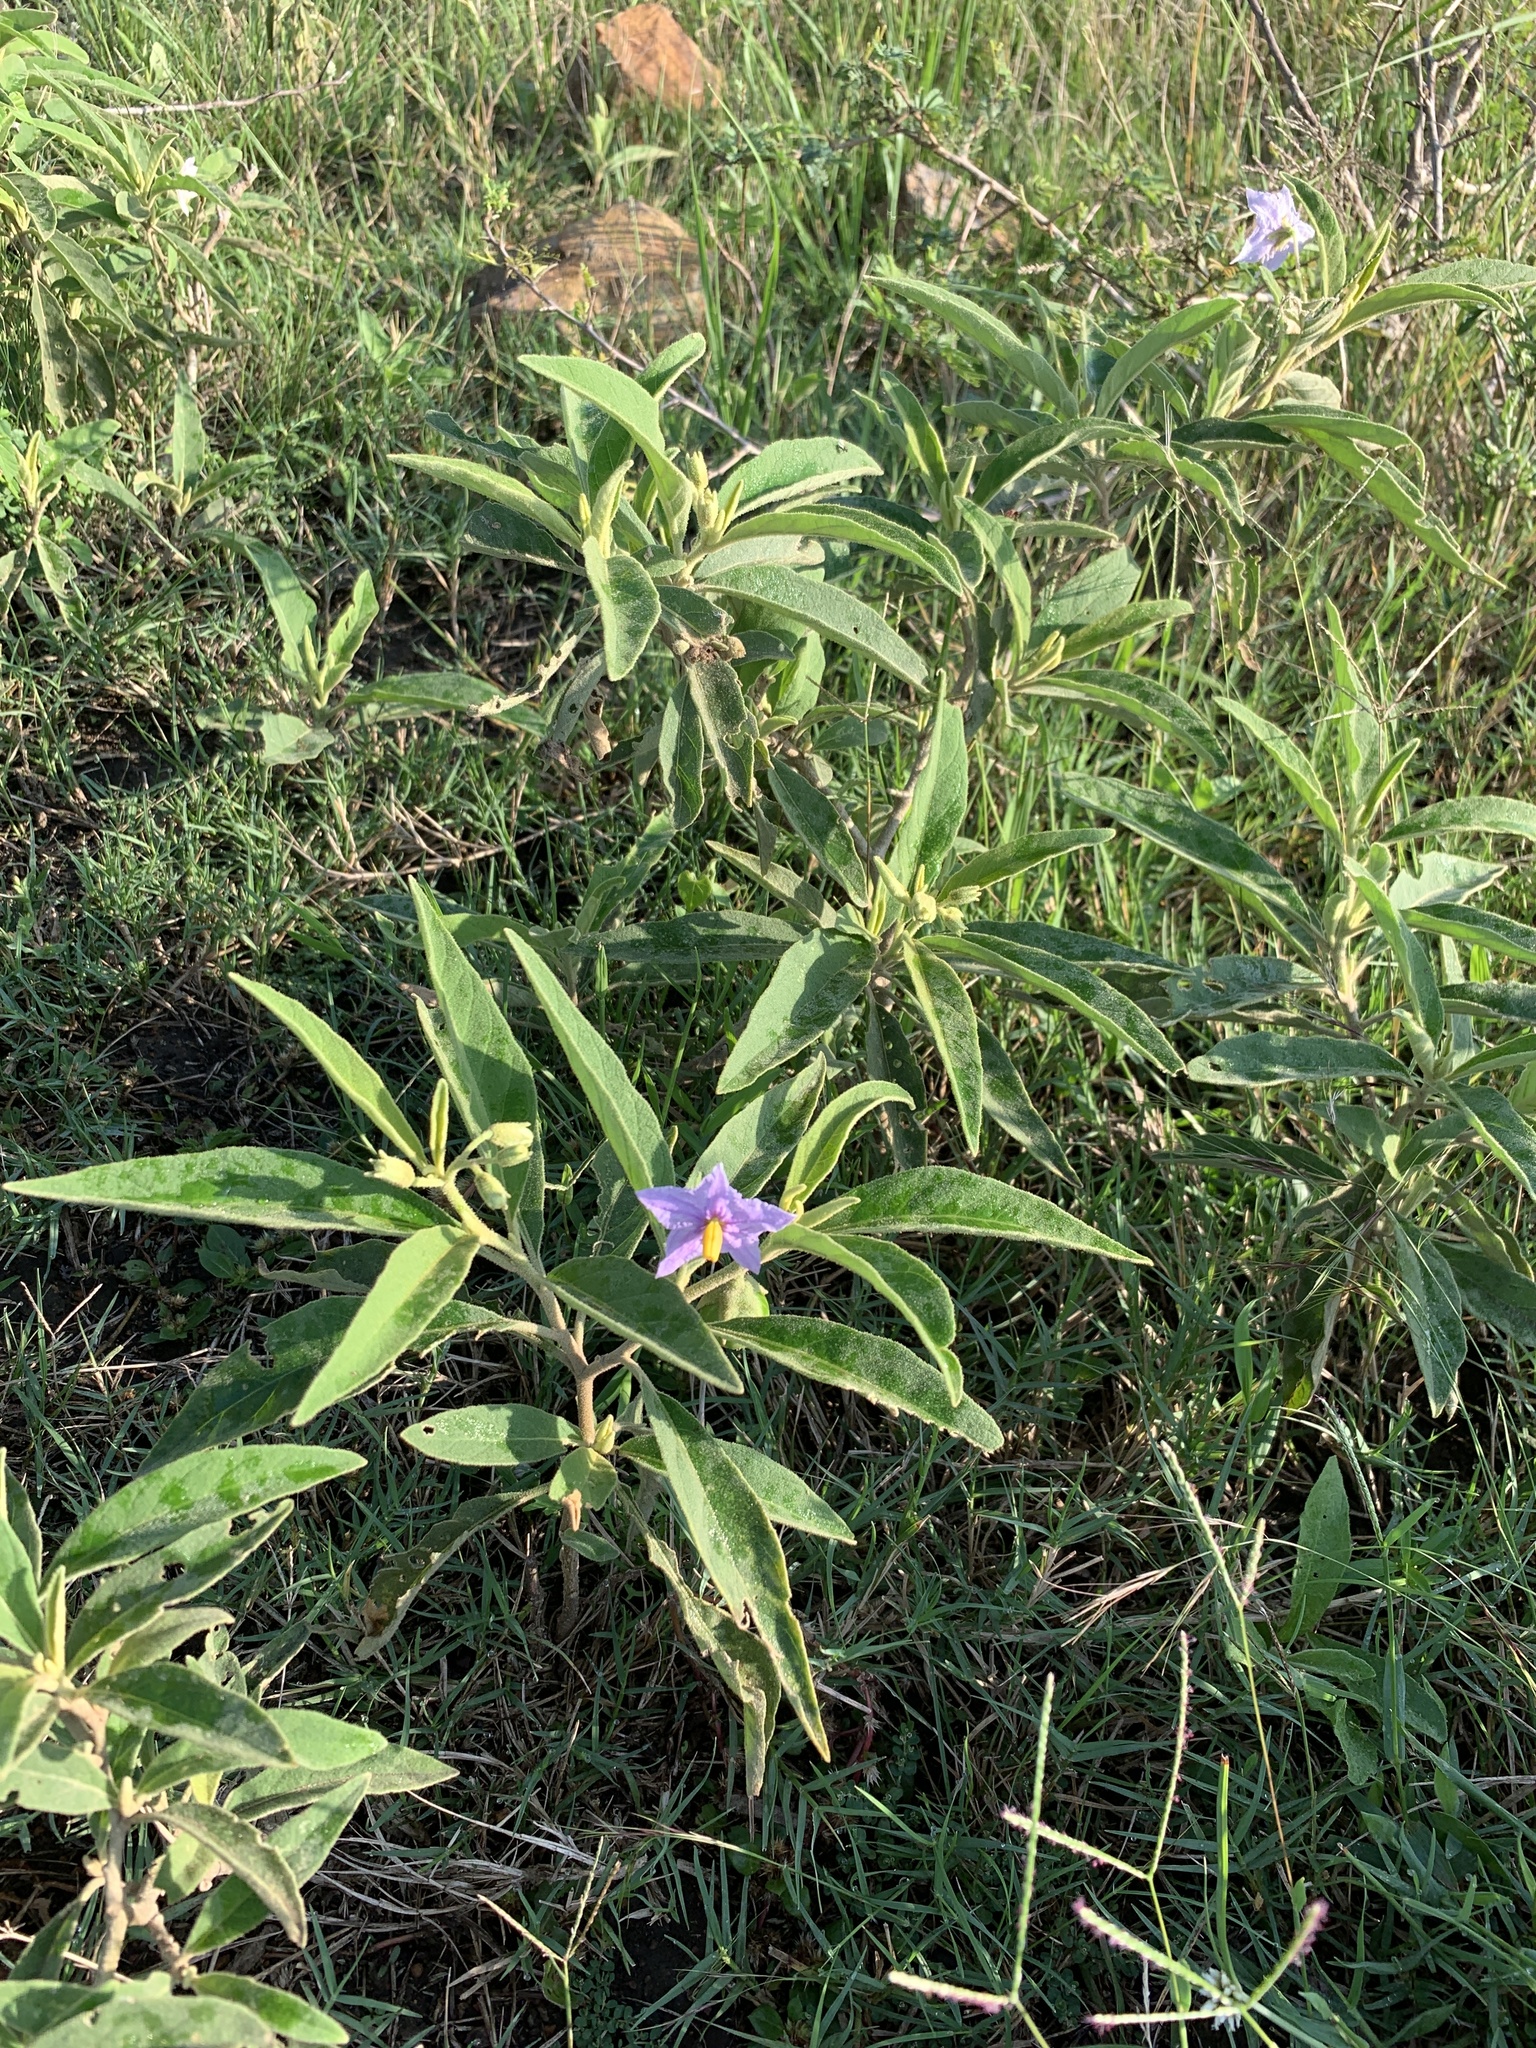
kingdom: Plantae
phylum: Tracheophyta
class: Magnoliopsida
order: Solanales
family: Solanaceae
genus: Solanum
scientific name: Solanum campylacanthum
